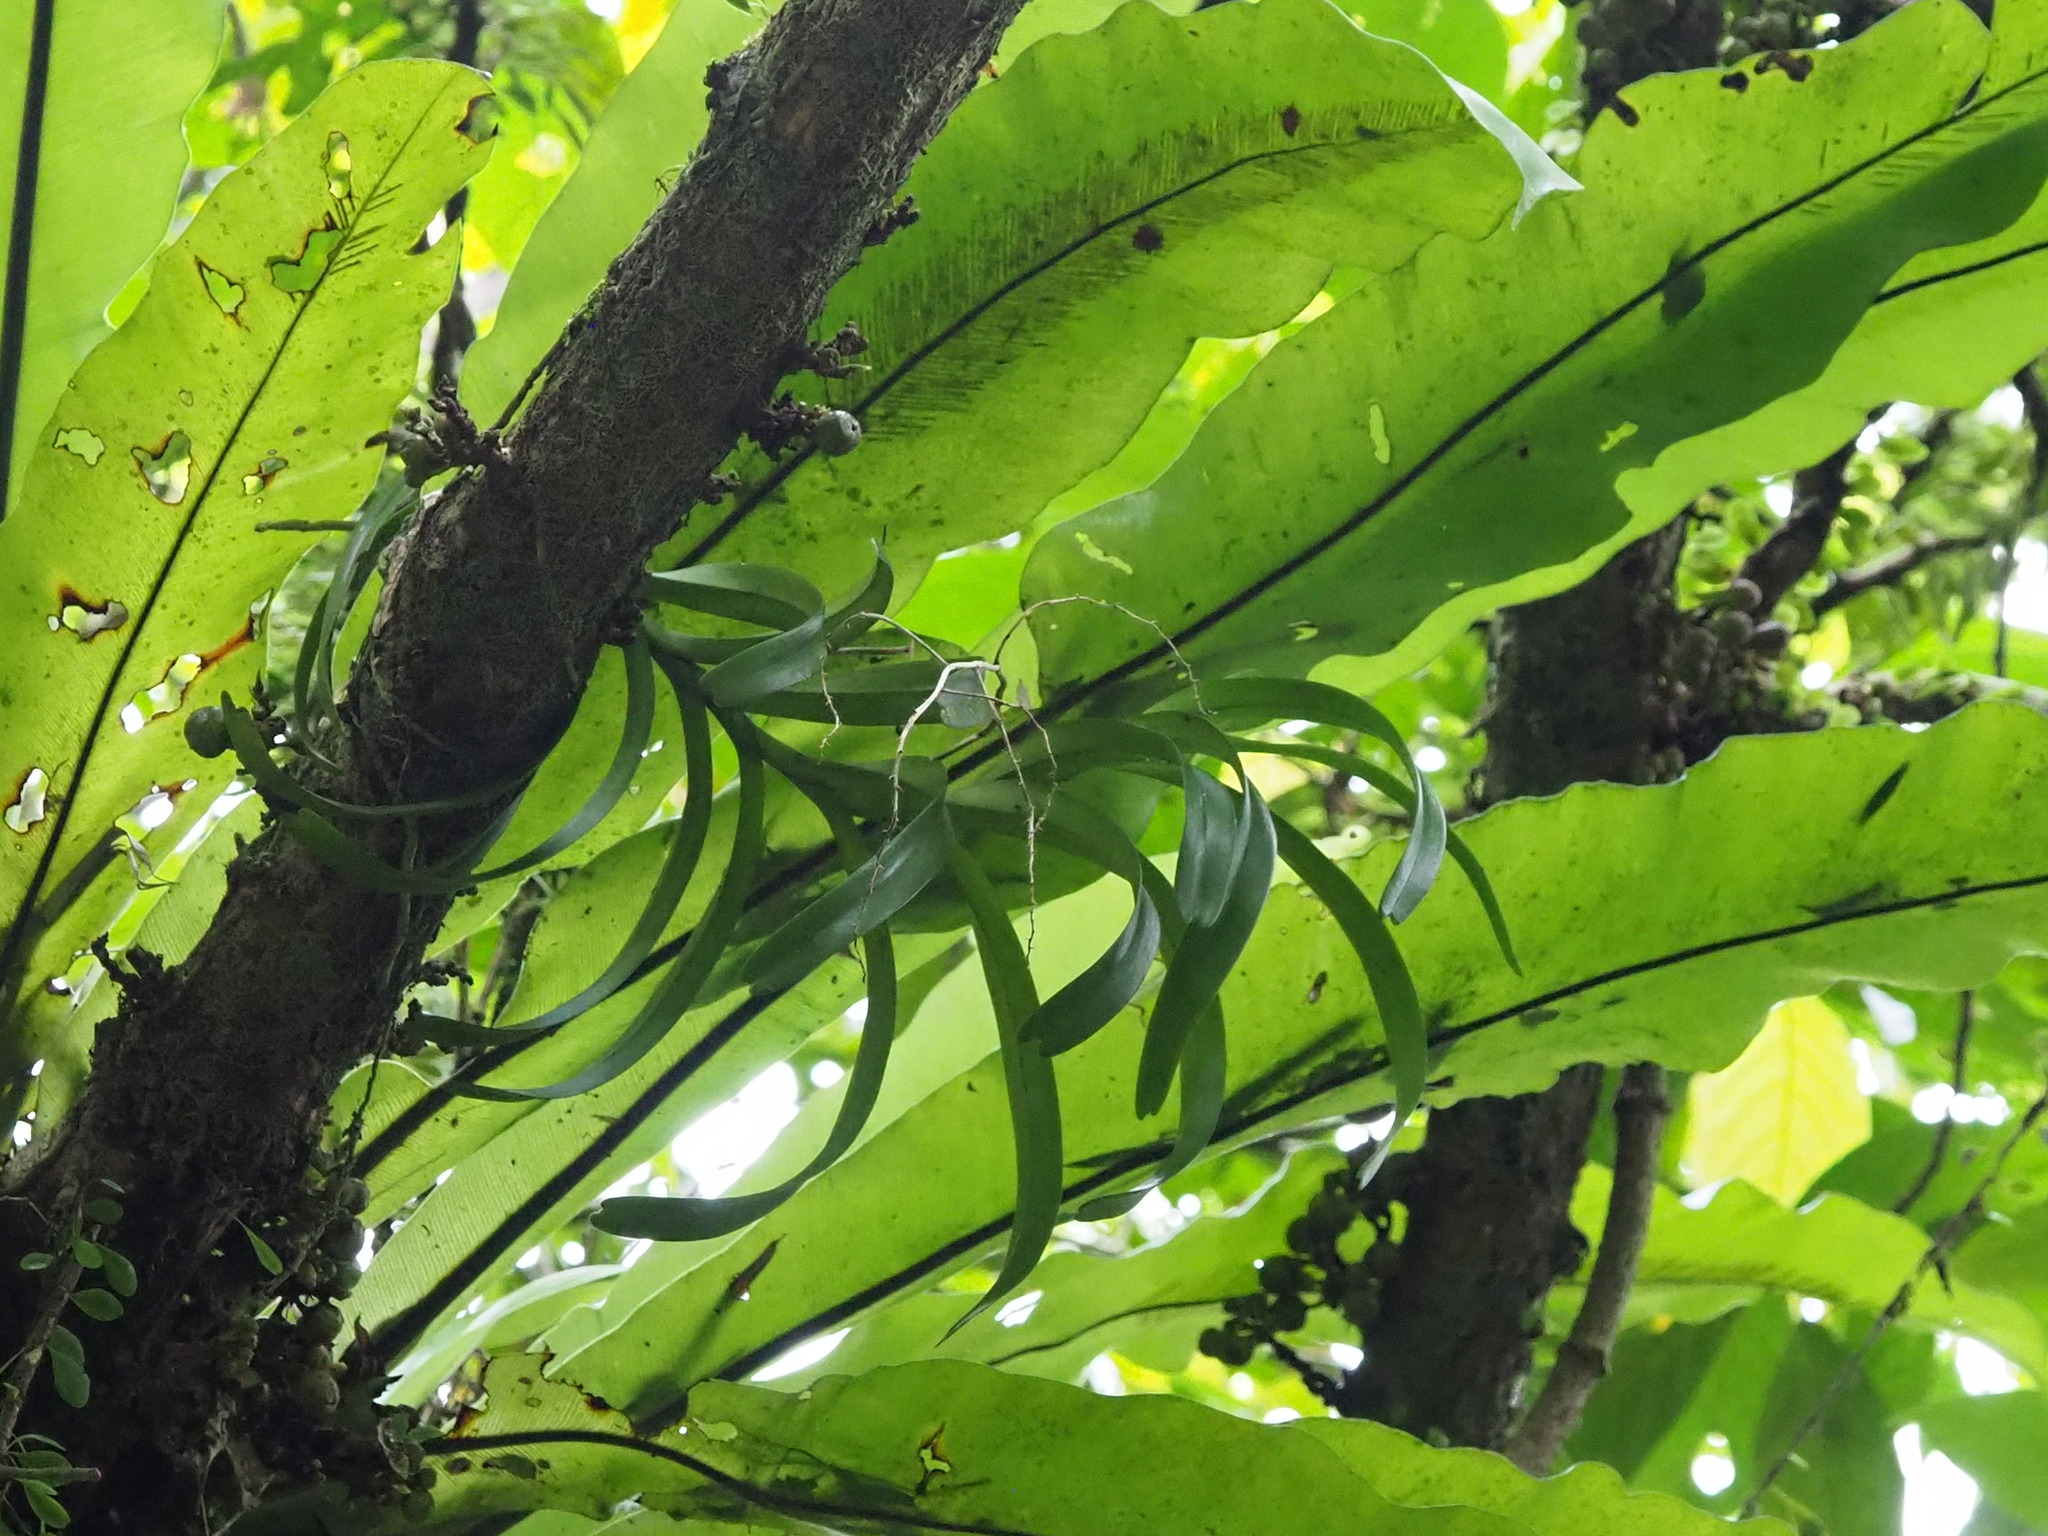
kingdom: Plantae
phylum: Tracheophyta
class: Liliopsida
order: Asparagales
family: Orchidaceae
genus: Cleisostoma
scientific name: Cleisostoma paniculatum
